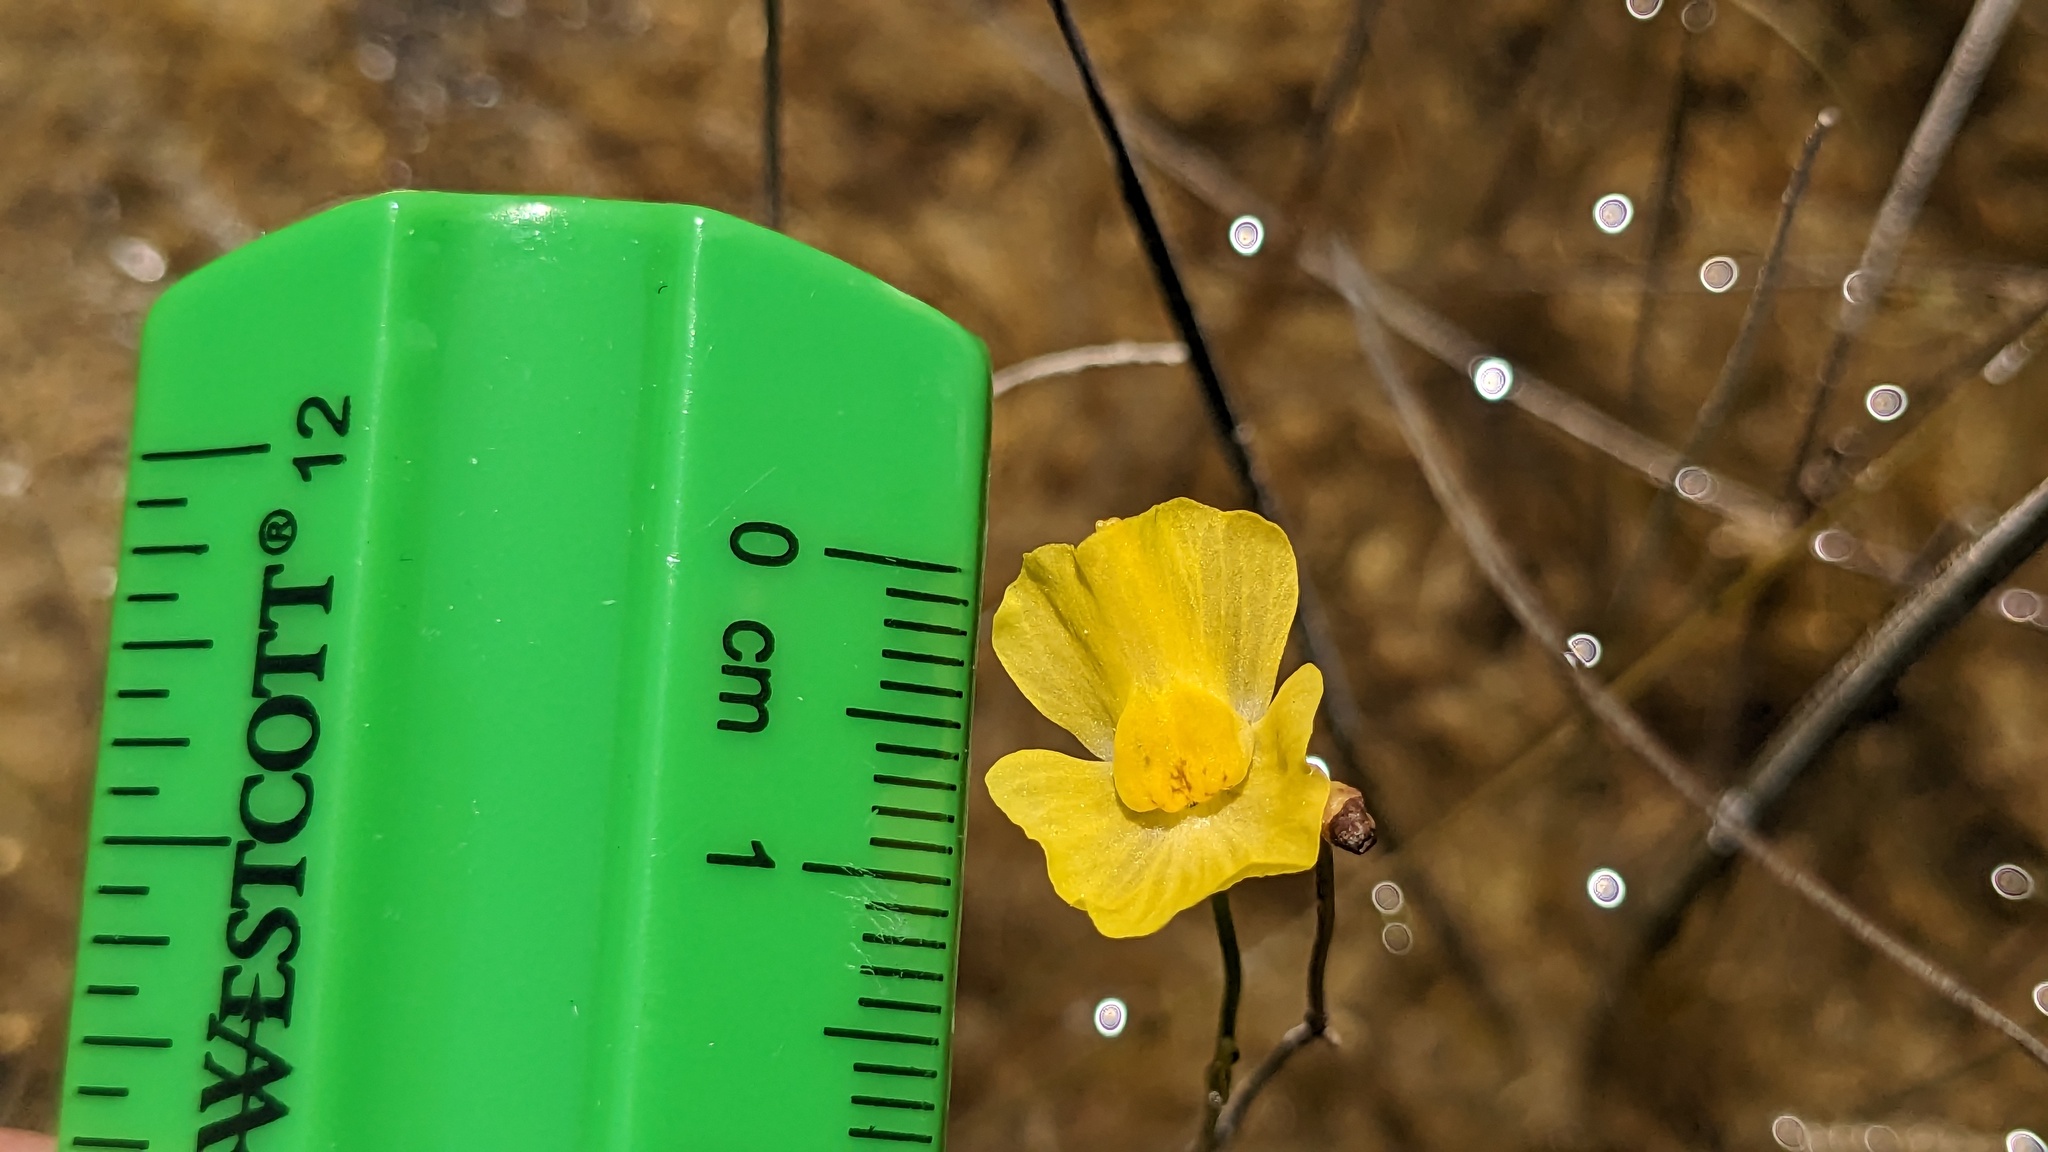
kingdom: Plantae
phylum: Tracheophyta
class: Magnoliopsida
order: Lamiales
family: Lentibulariaceae
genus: Utricularia
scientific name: Utricularia gibba
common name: Humped bladderwort
